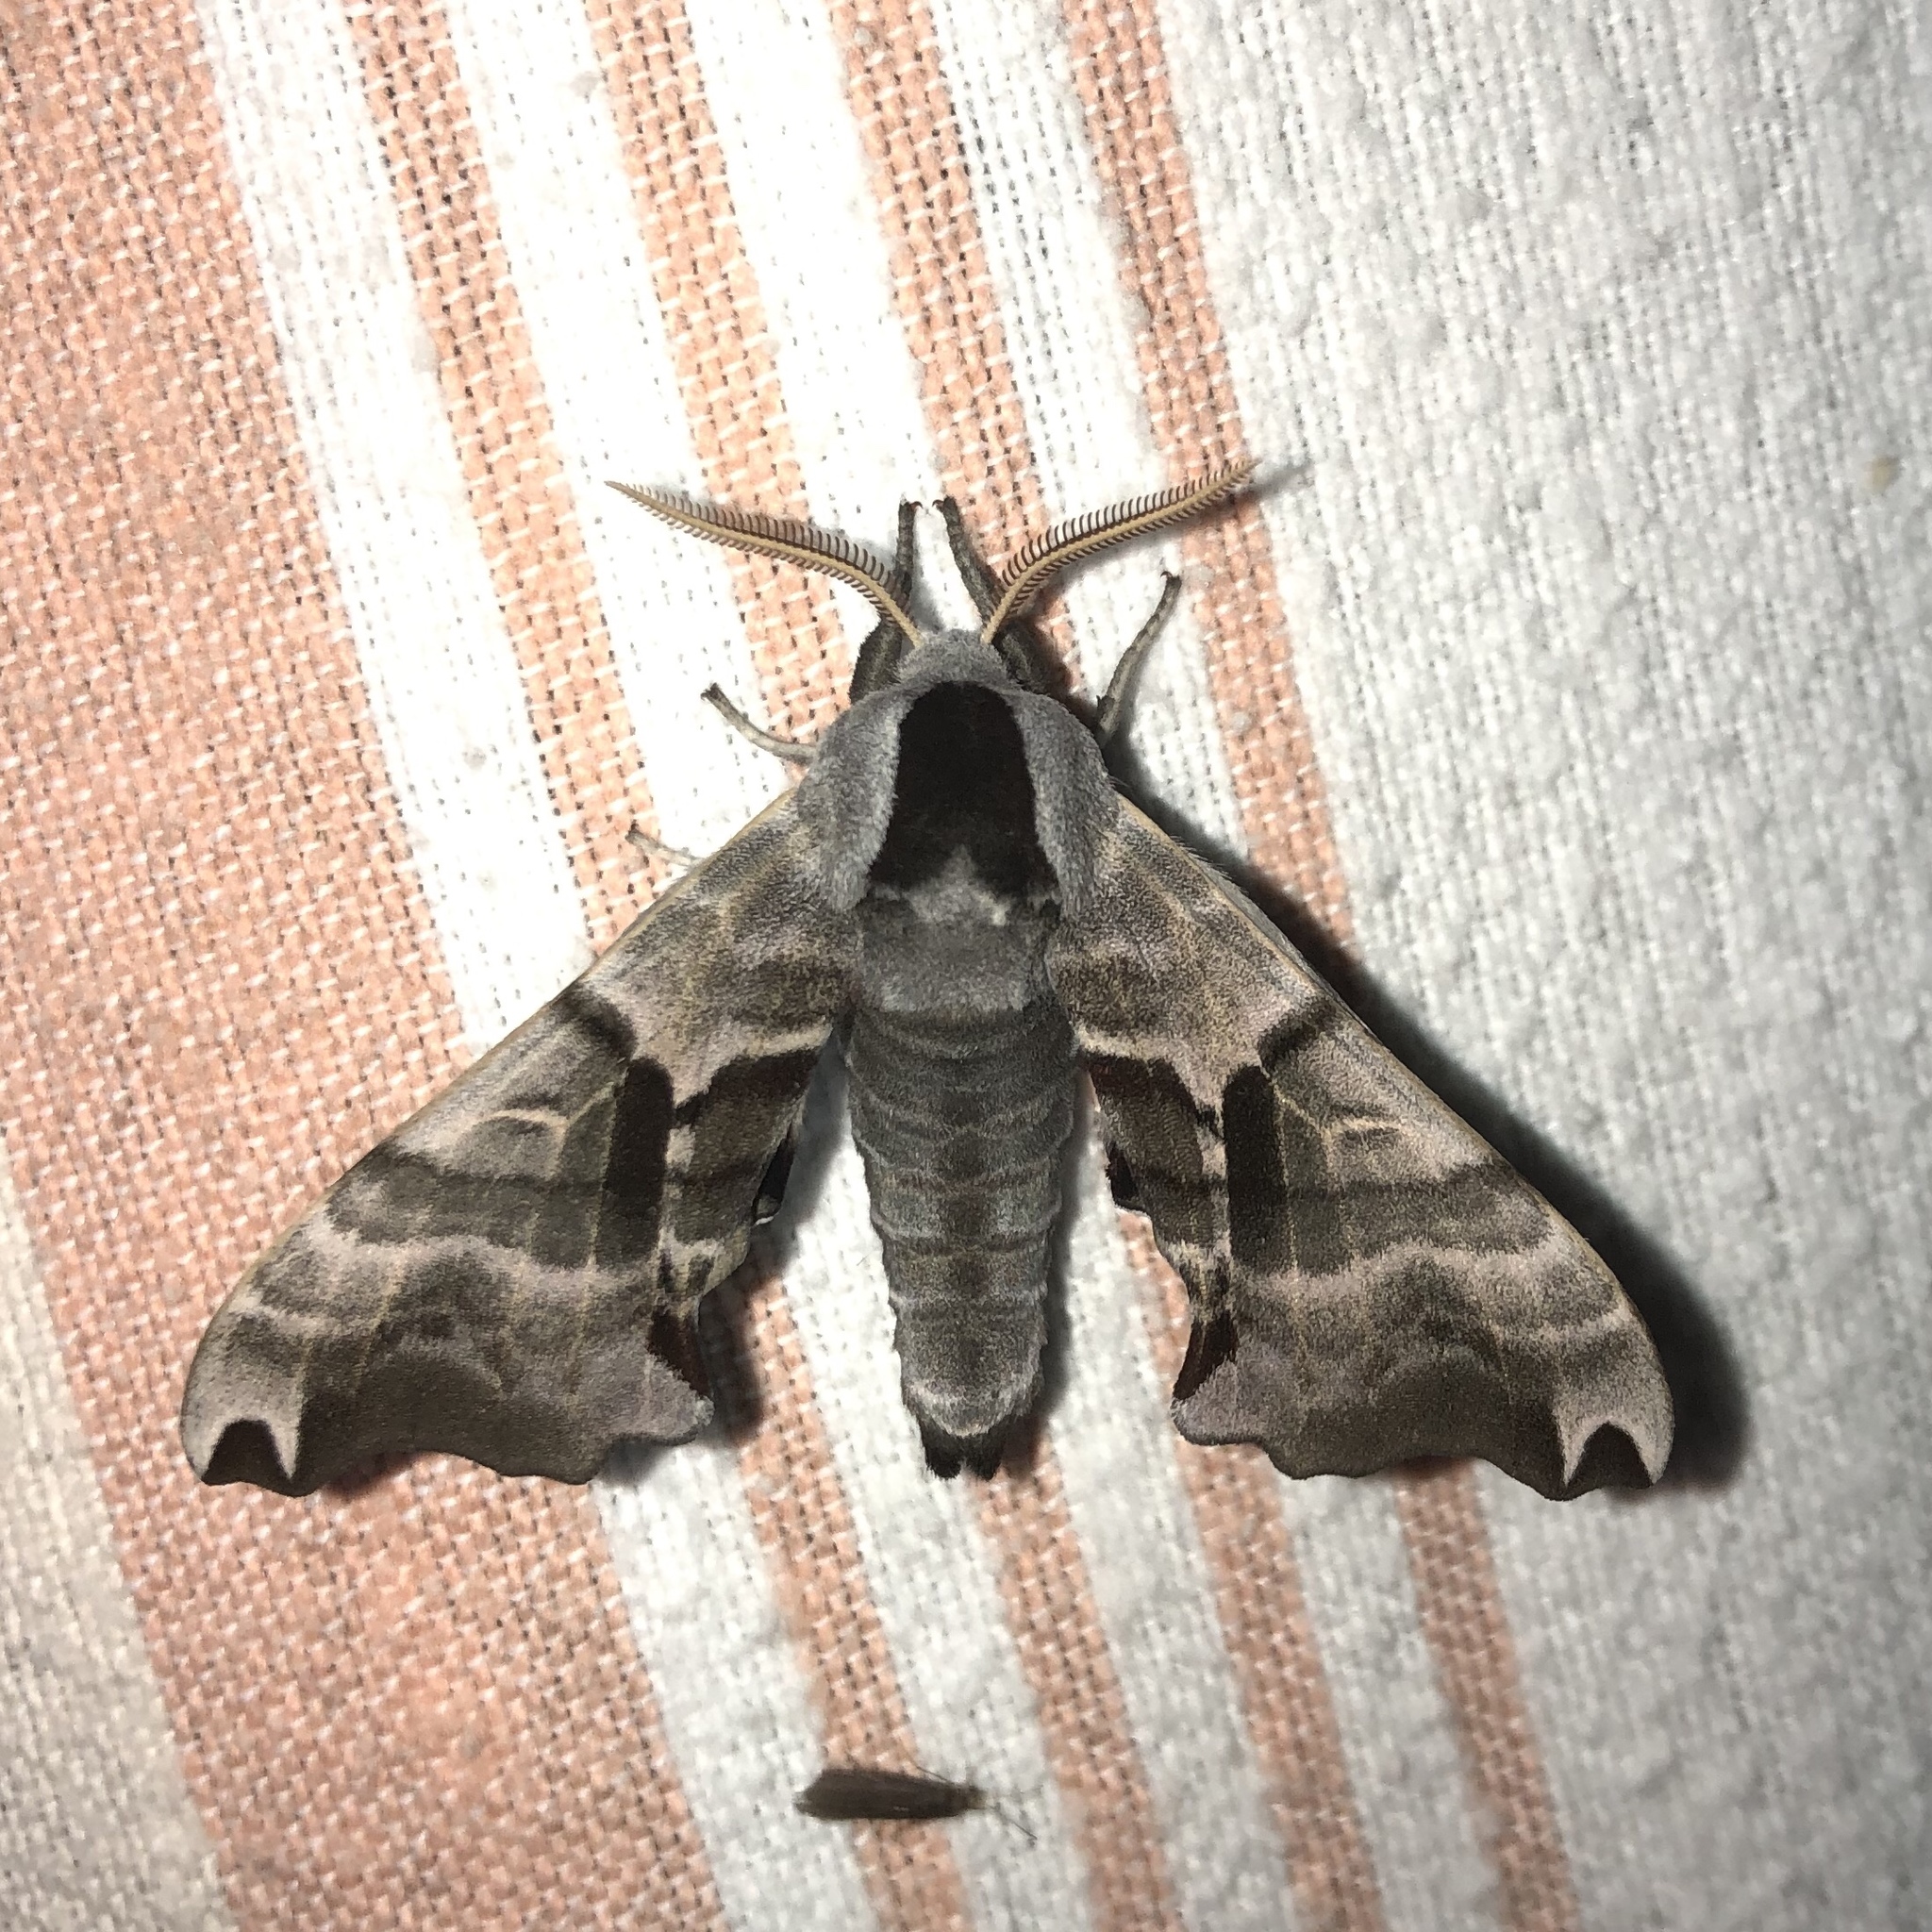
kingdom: Animalia
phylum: Arthropoda
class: Insecta
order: Lepidoptera
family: Sphingidae
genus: Smerinthus
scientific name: Smerinthus jamaicensis
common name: Twin spotted sphinx
